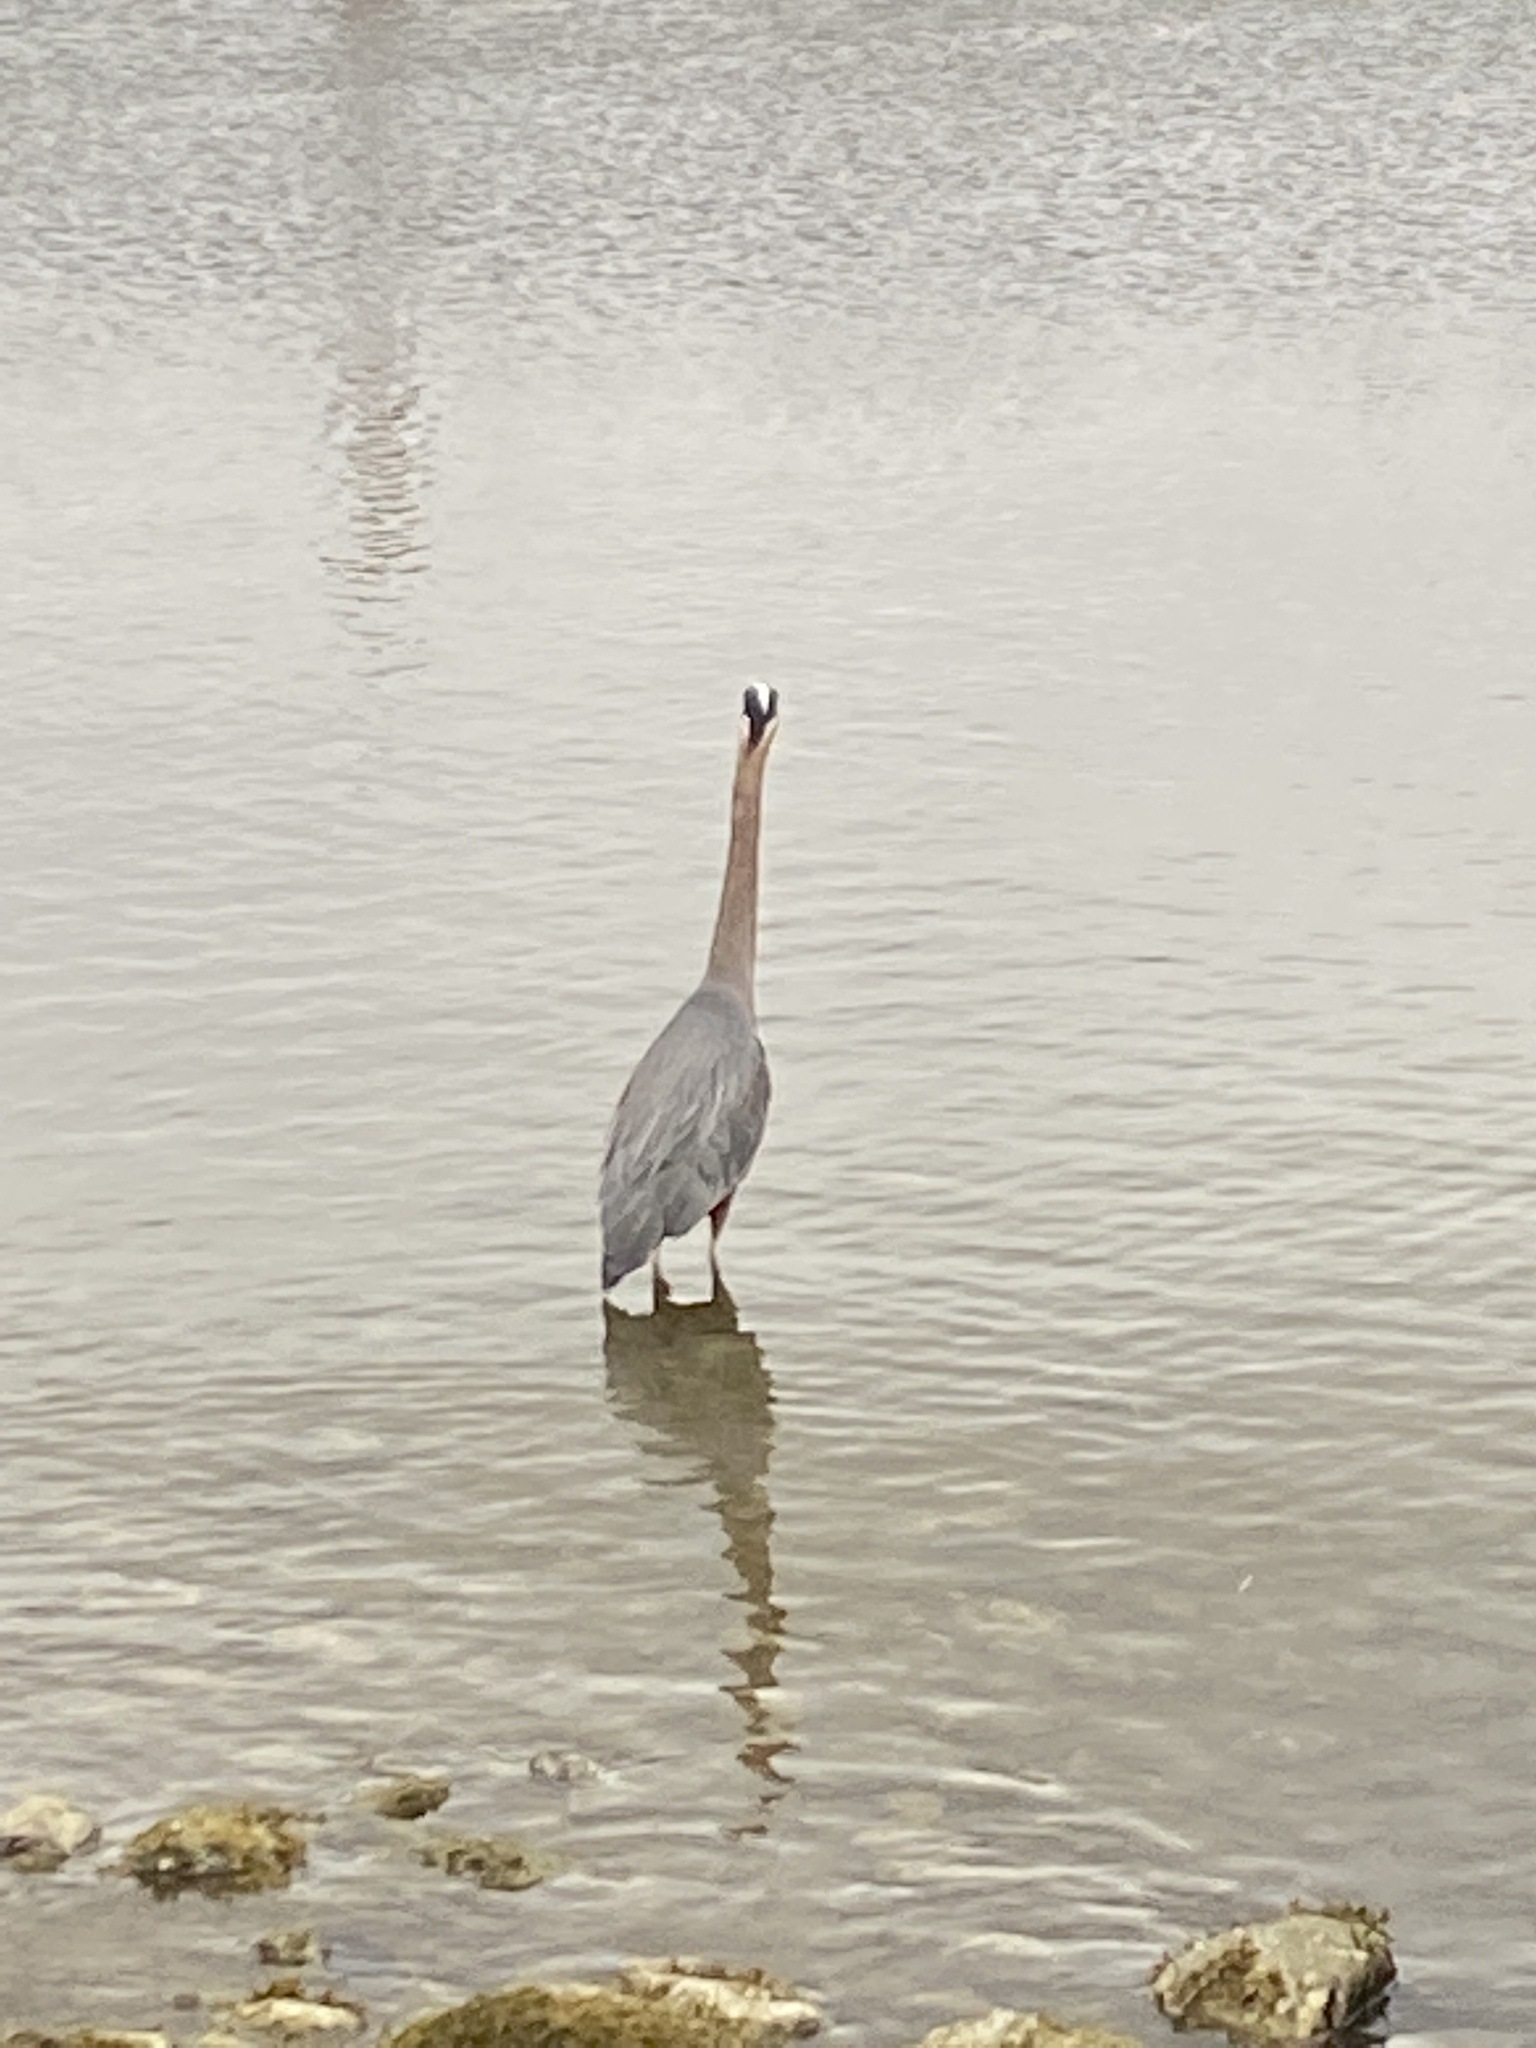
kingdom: Animalia
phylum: Chordata
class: Aves
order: Pelecaniformes
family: Ardeidae
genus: Ardea
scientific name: Ardea herodias
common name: Great blue heron
